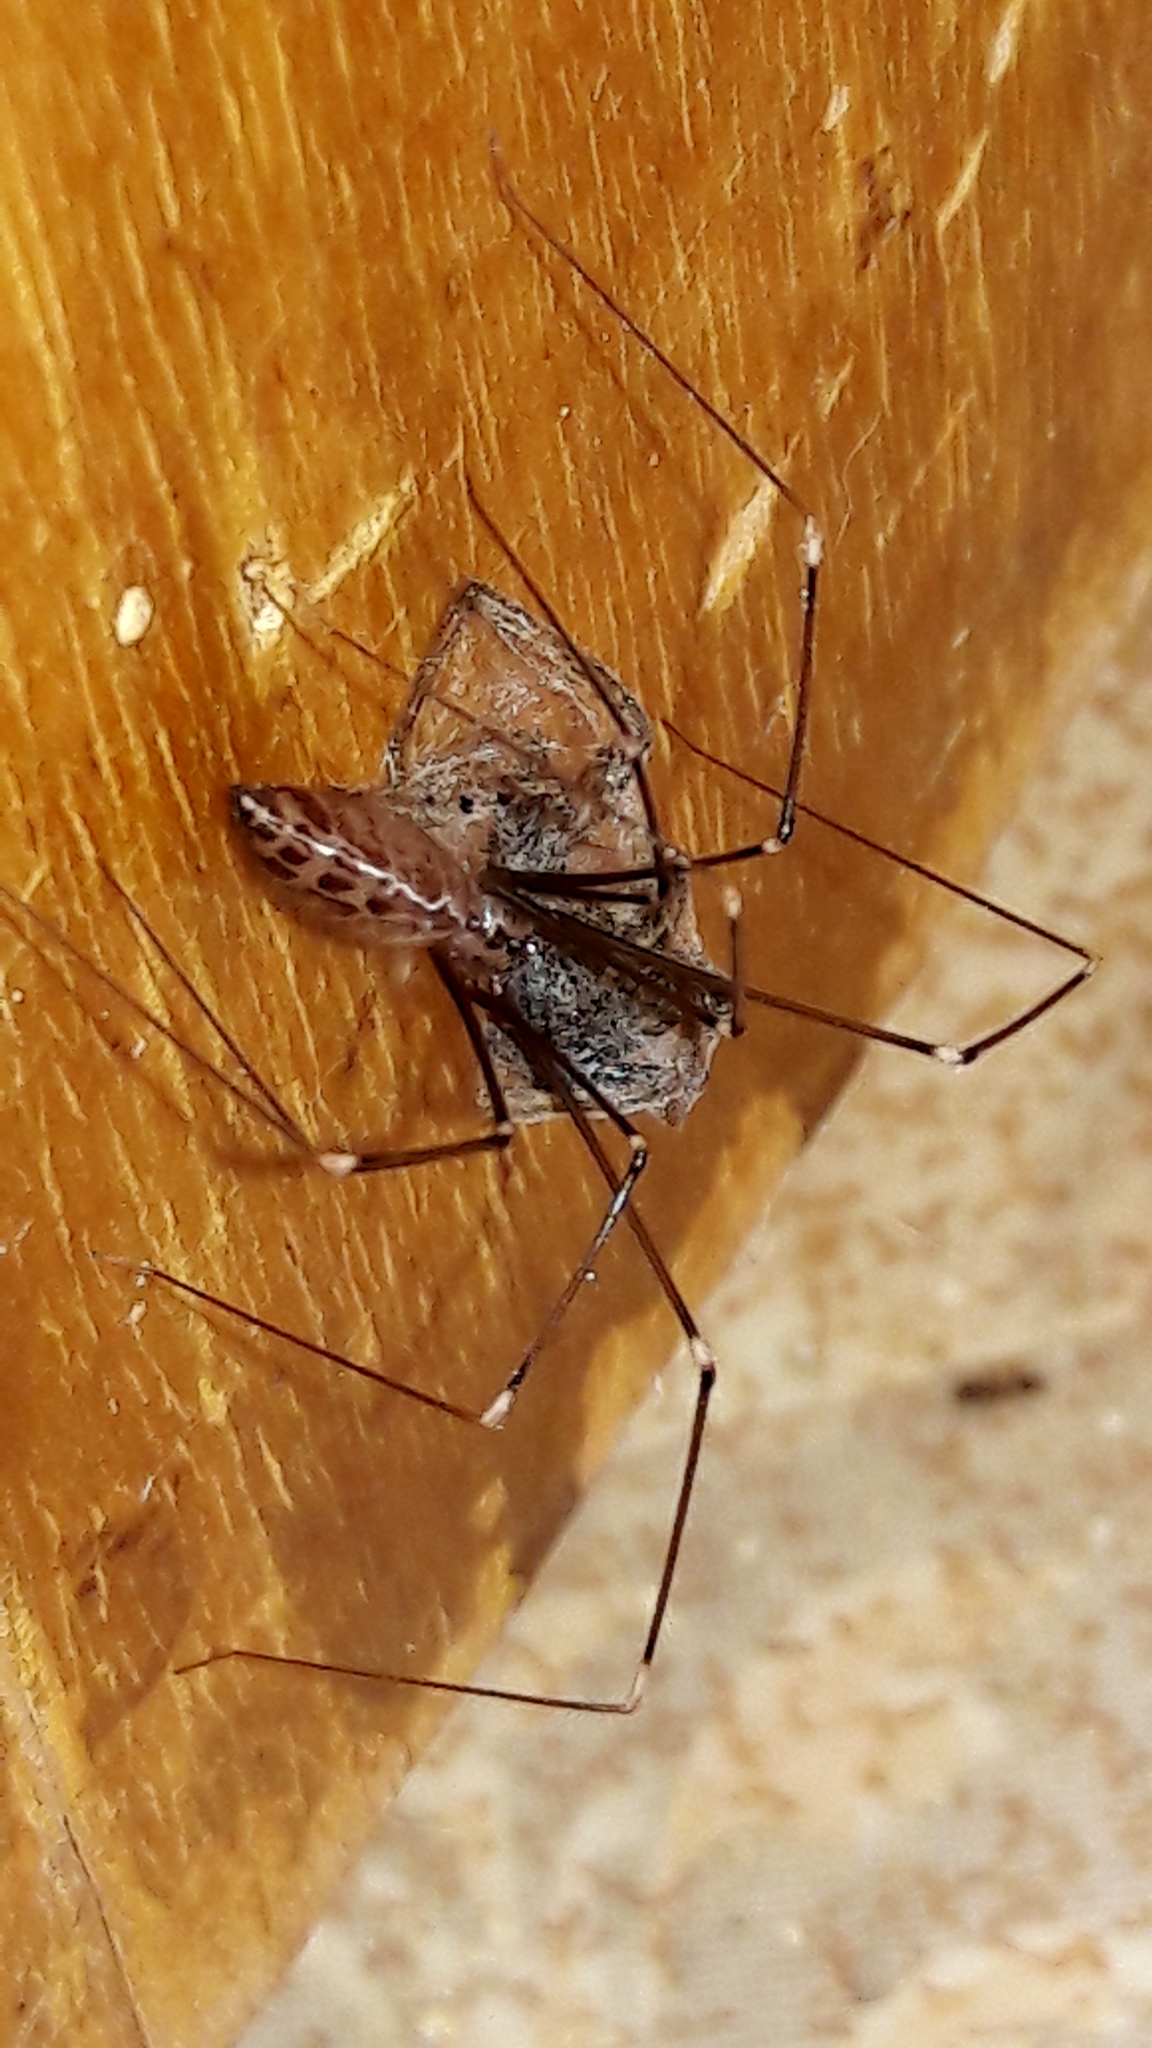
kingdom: Animalia
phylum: Arthropoda
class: Arachnida
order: Araneae
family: Pholcidae
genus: Smeringopus
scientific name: Smeringopus pallidus
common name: Cellar spider
